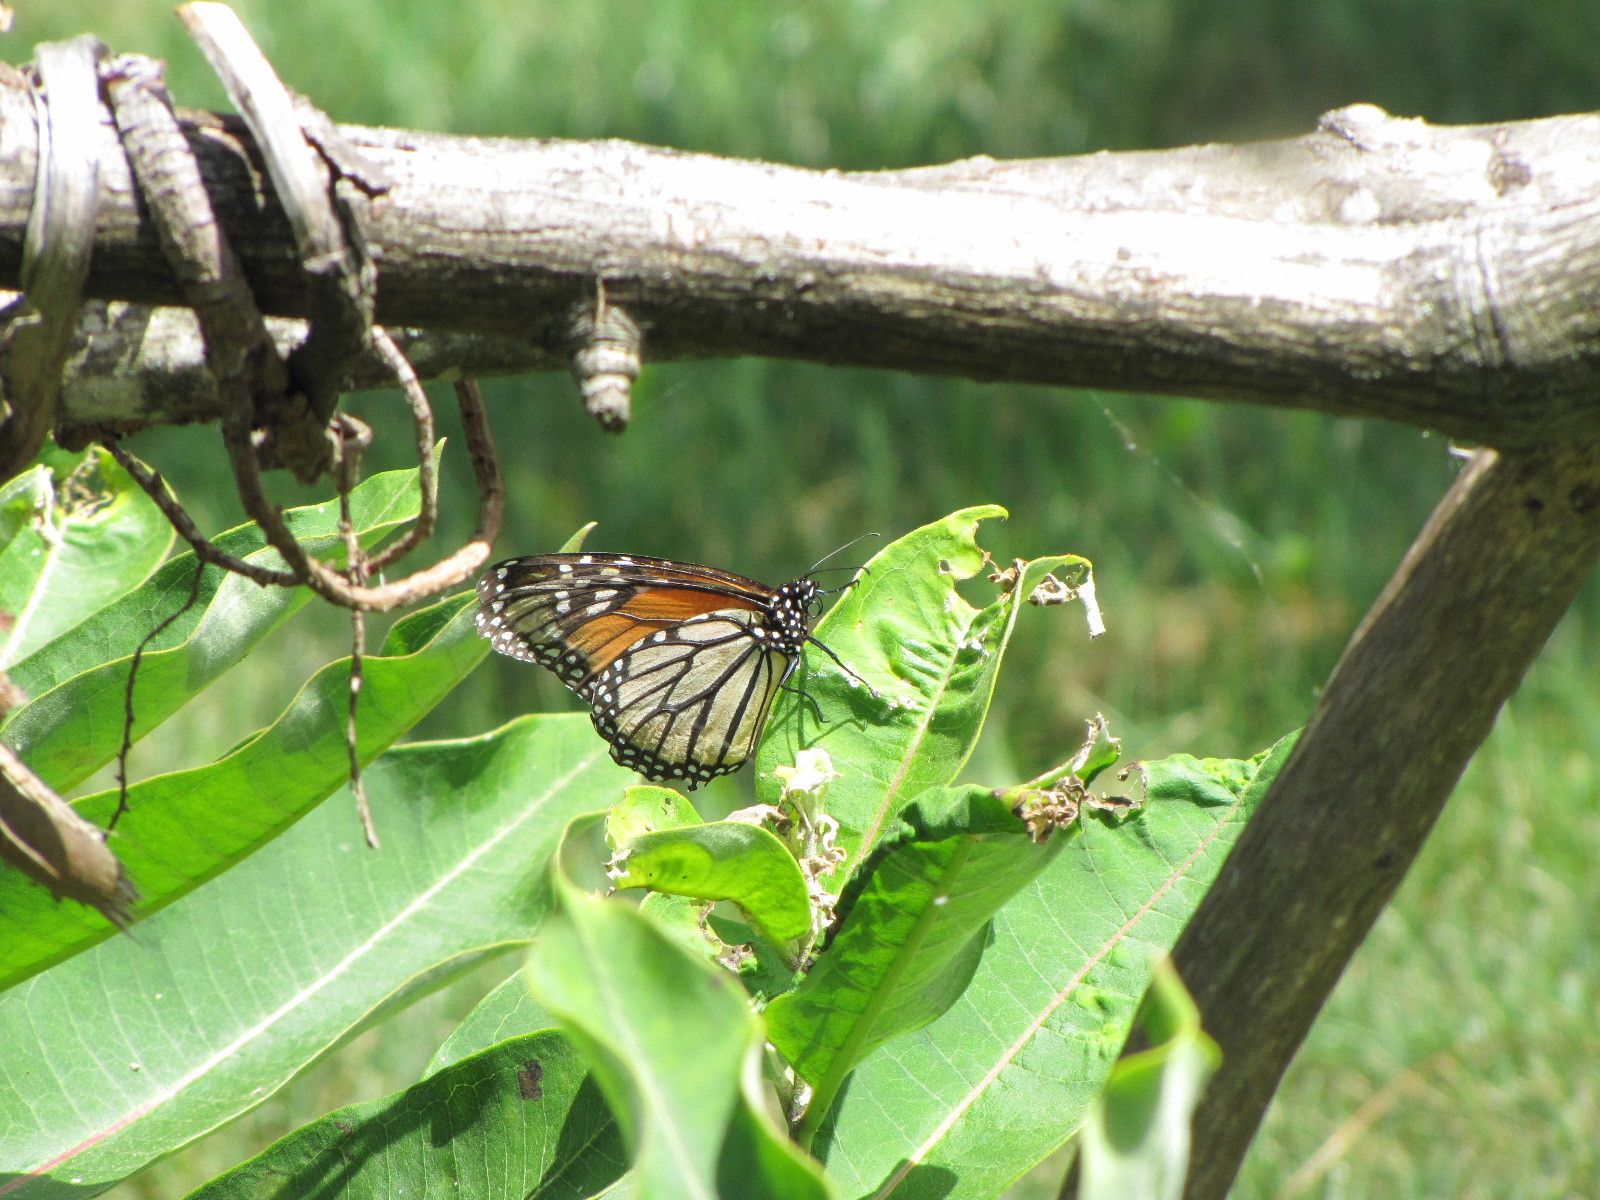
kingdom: Animalia
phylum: Arthropoda
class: Insecta
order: Lepidoptera
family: Nymphalidae
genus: Danaus
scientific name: Danaus plexippus
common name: Monarch
